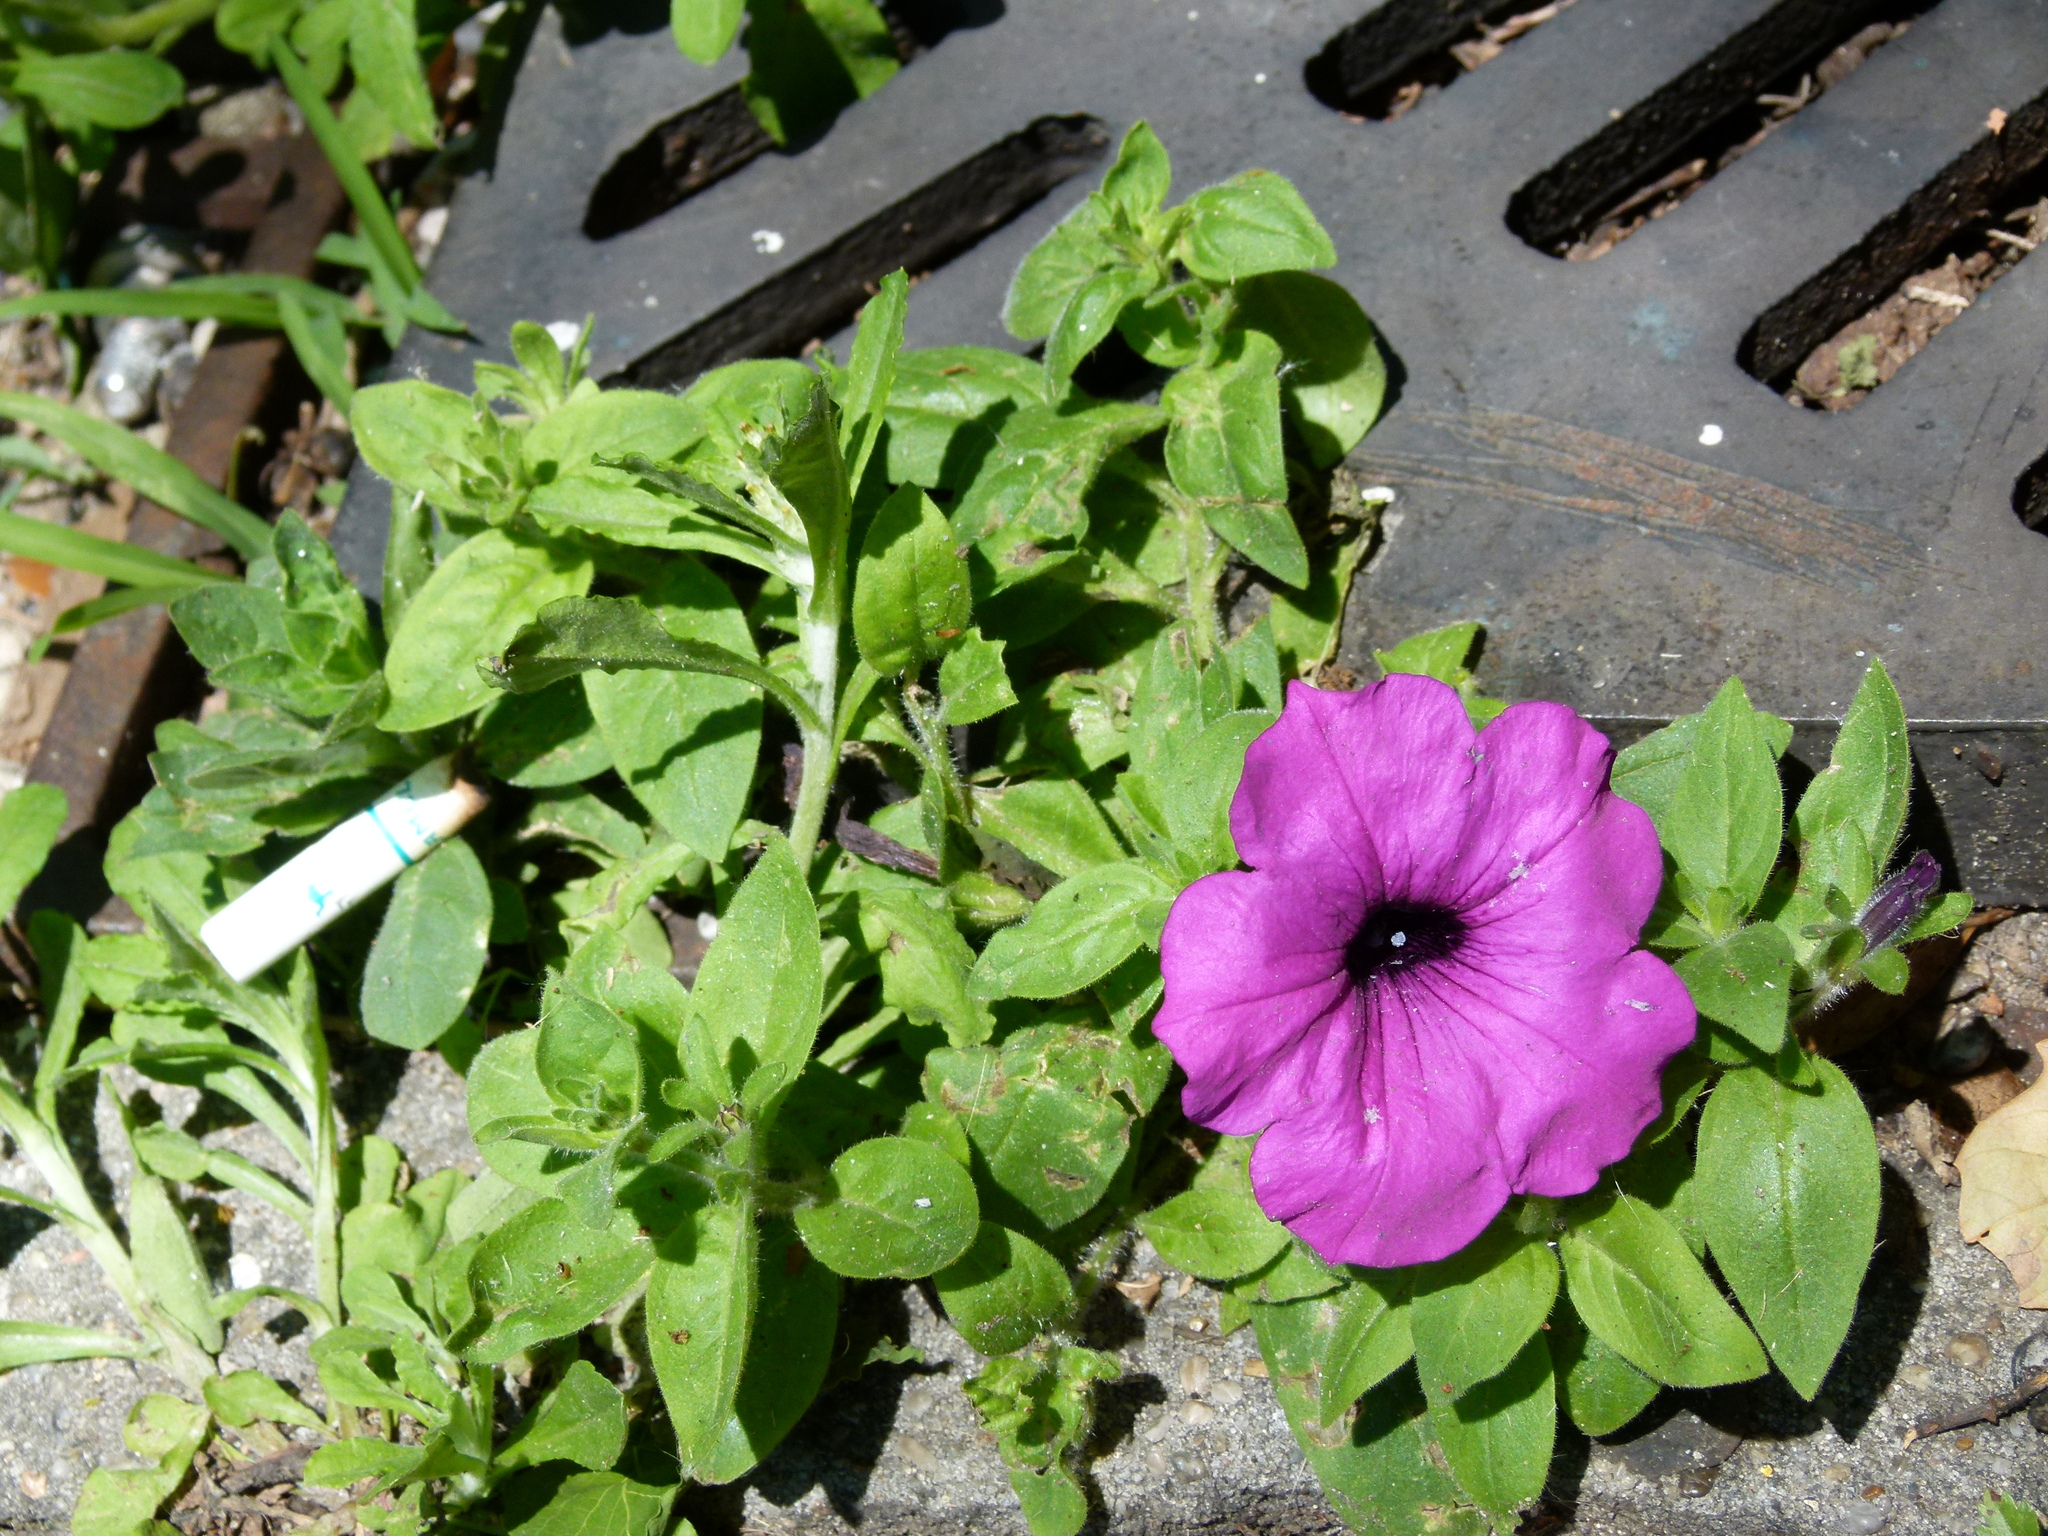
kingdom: Plantae
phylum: Tracheophyta
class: Magnoliopsida
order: Solanales
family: Solanaceae
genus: Petunia
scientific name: Petunia atkinsiana
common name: Petunia
